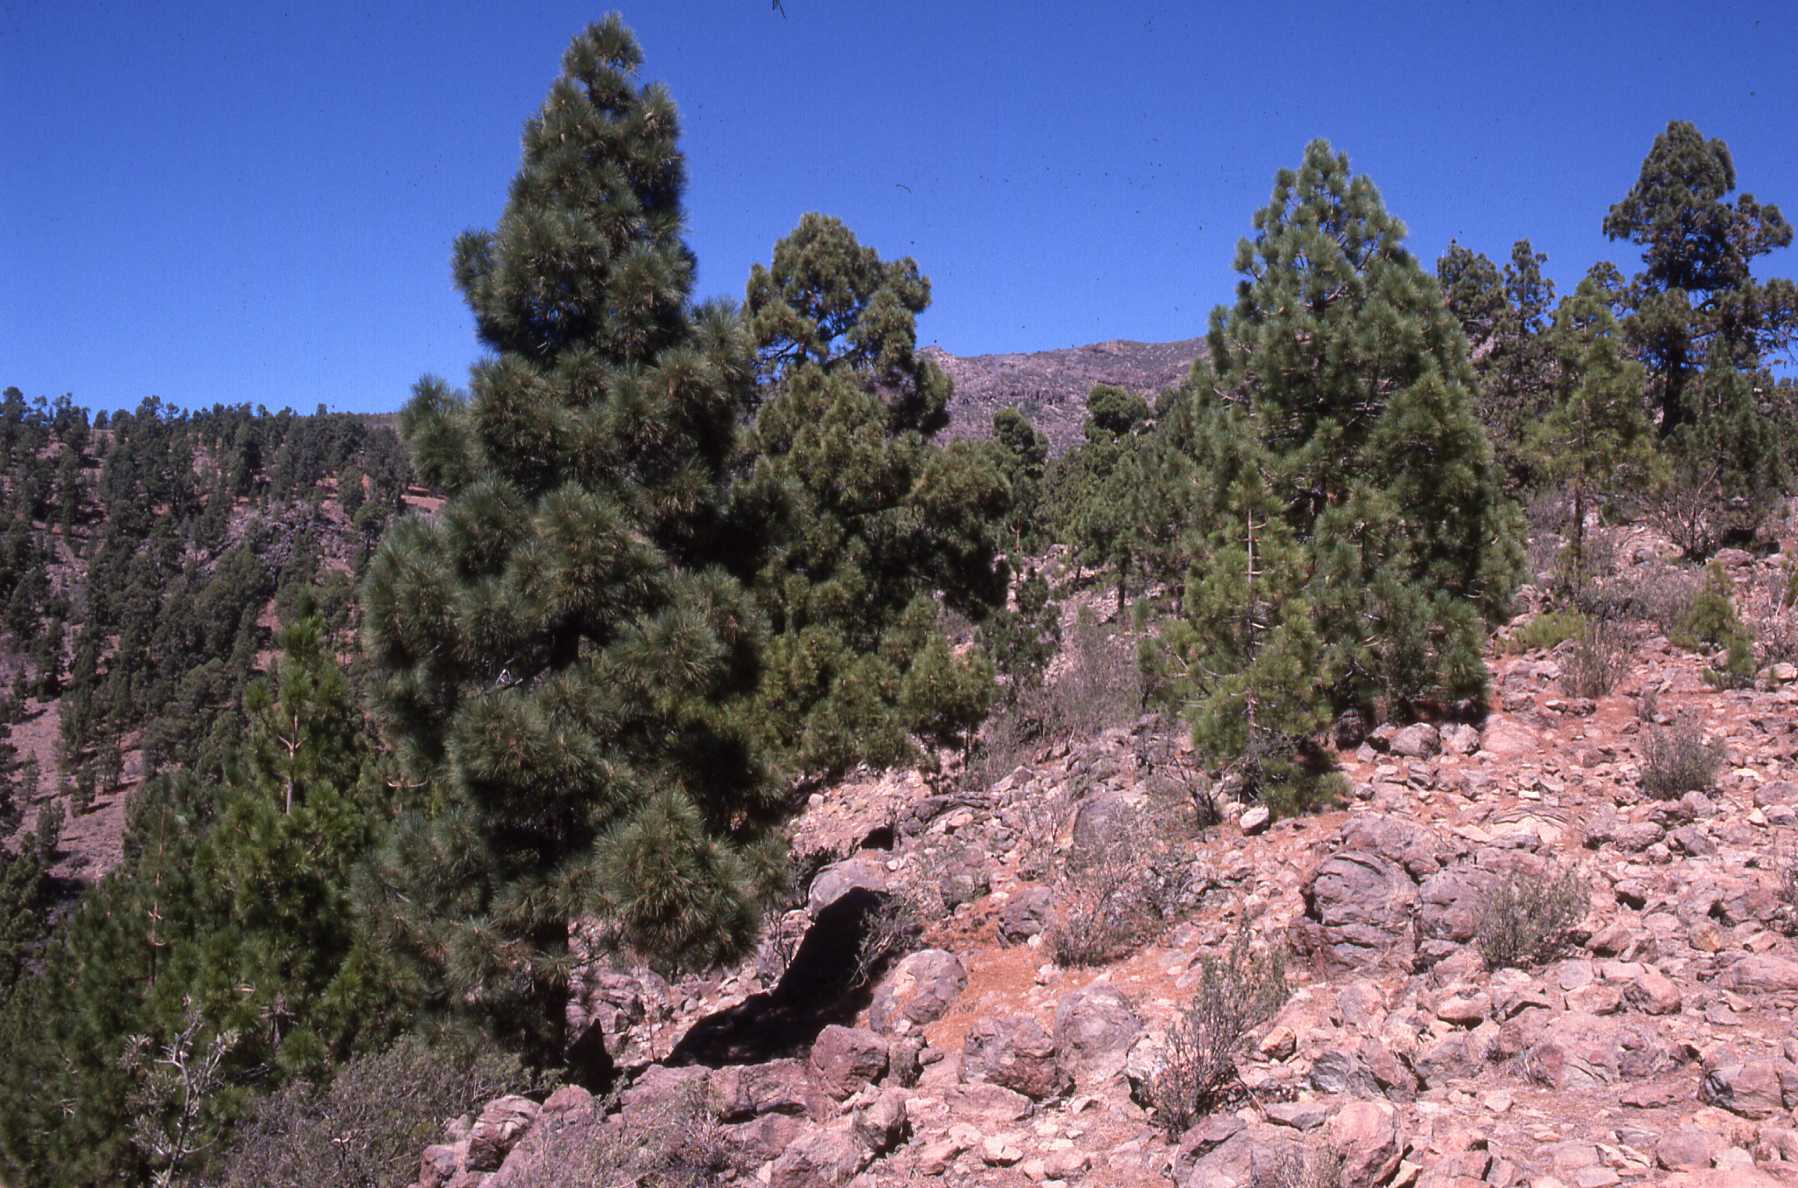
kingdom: Plantae
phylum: Tracheophyta
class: Pinopsida
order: Pinales
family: Pinaceae
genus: Pinus
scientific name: Pinus canariensis
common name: Canary islands pine
